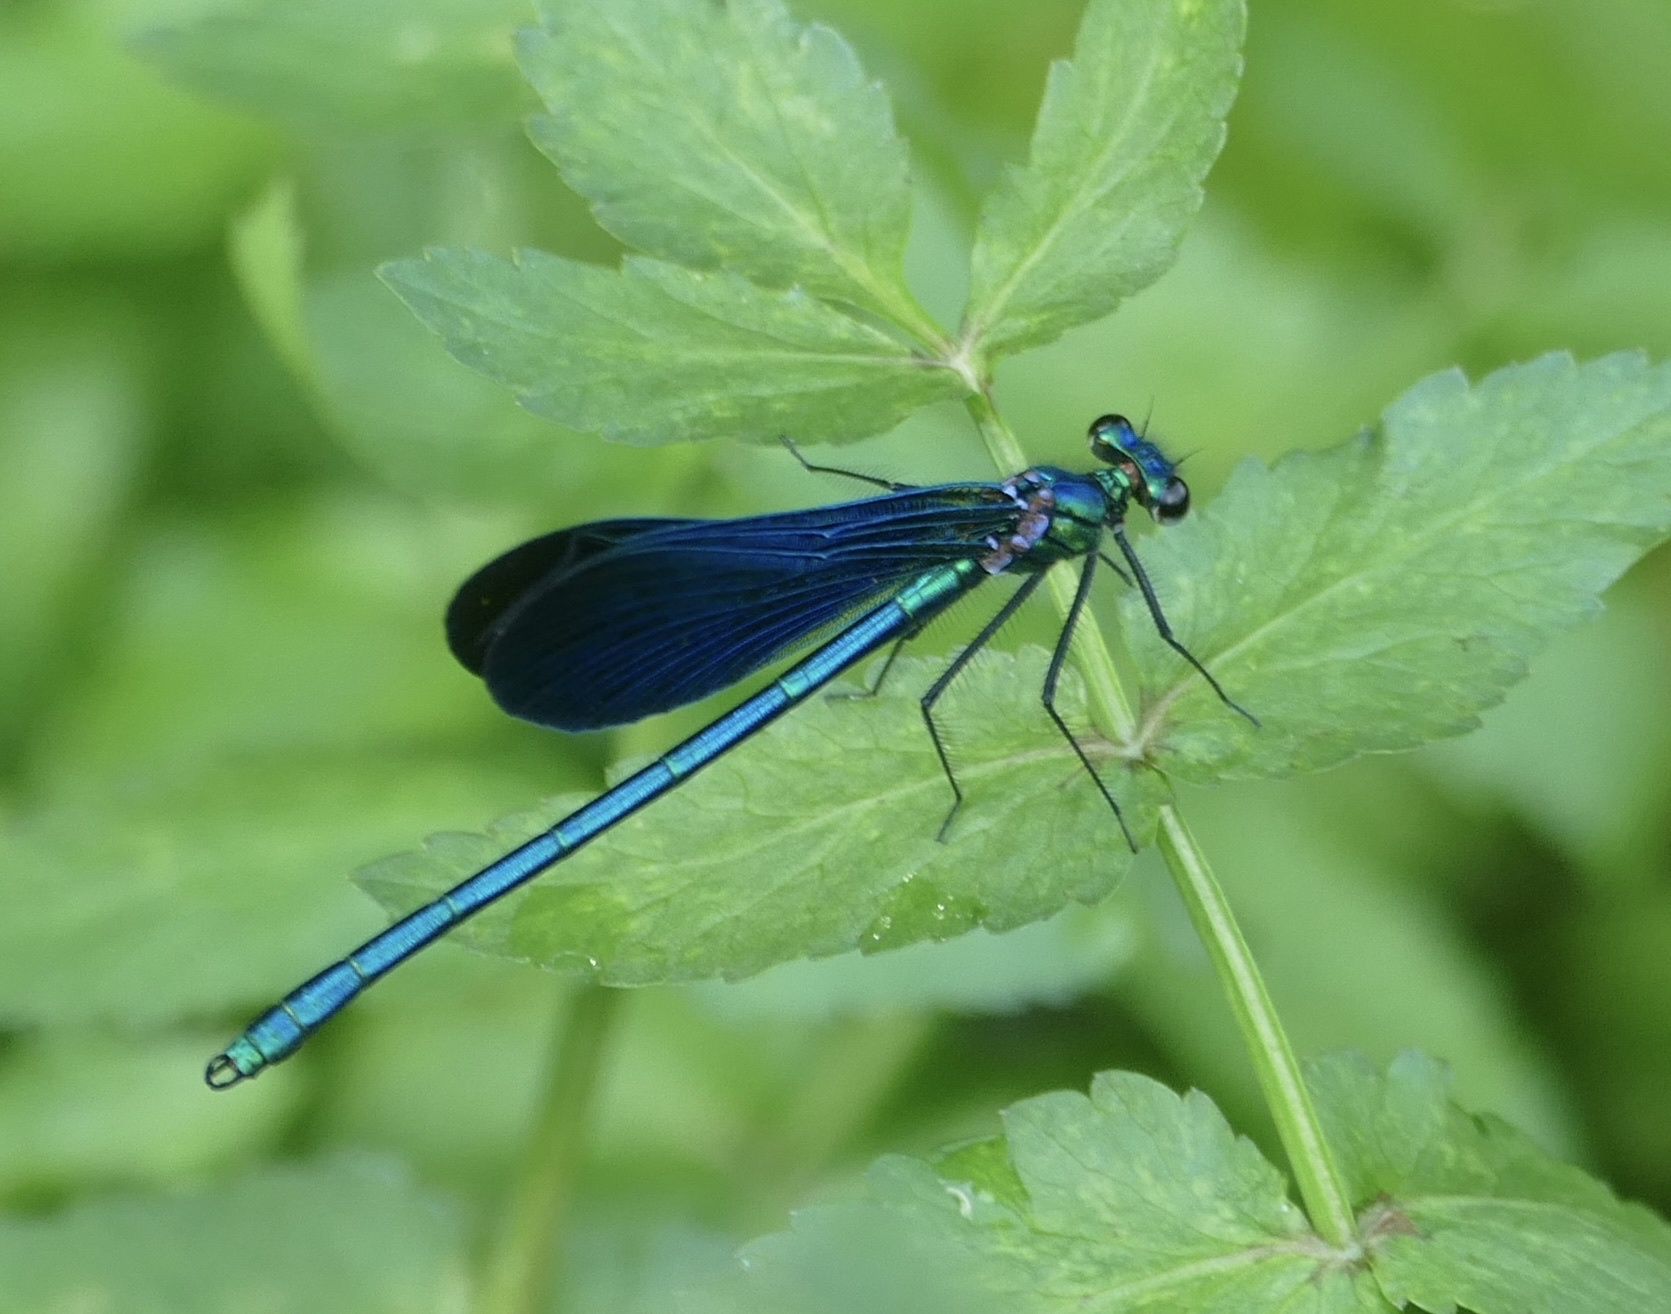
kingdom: Animalia
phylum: Arthropoda
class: Insecta
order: Odonata
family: Calopterygidae
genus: Calopteryx
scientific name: Calopteryx virgo
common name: Beautiful demoiselle
